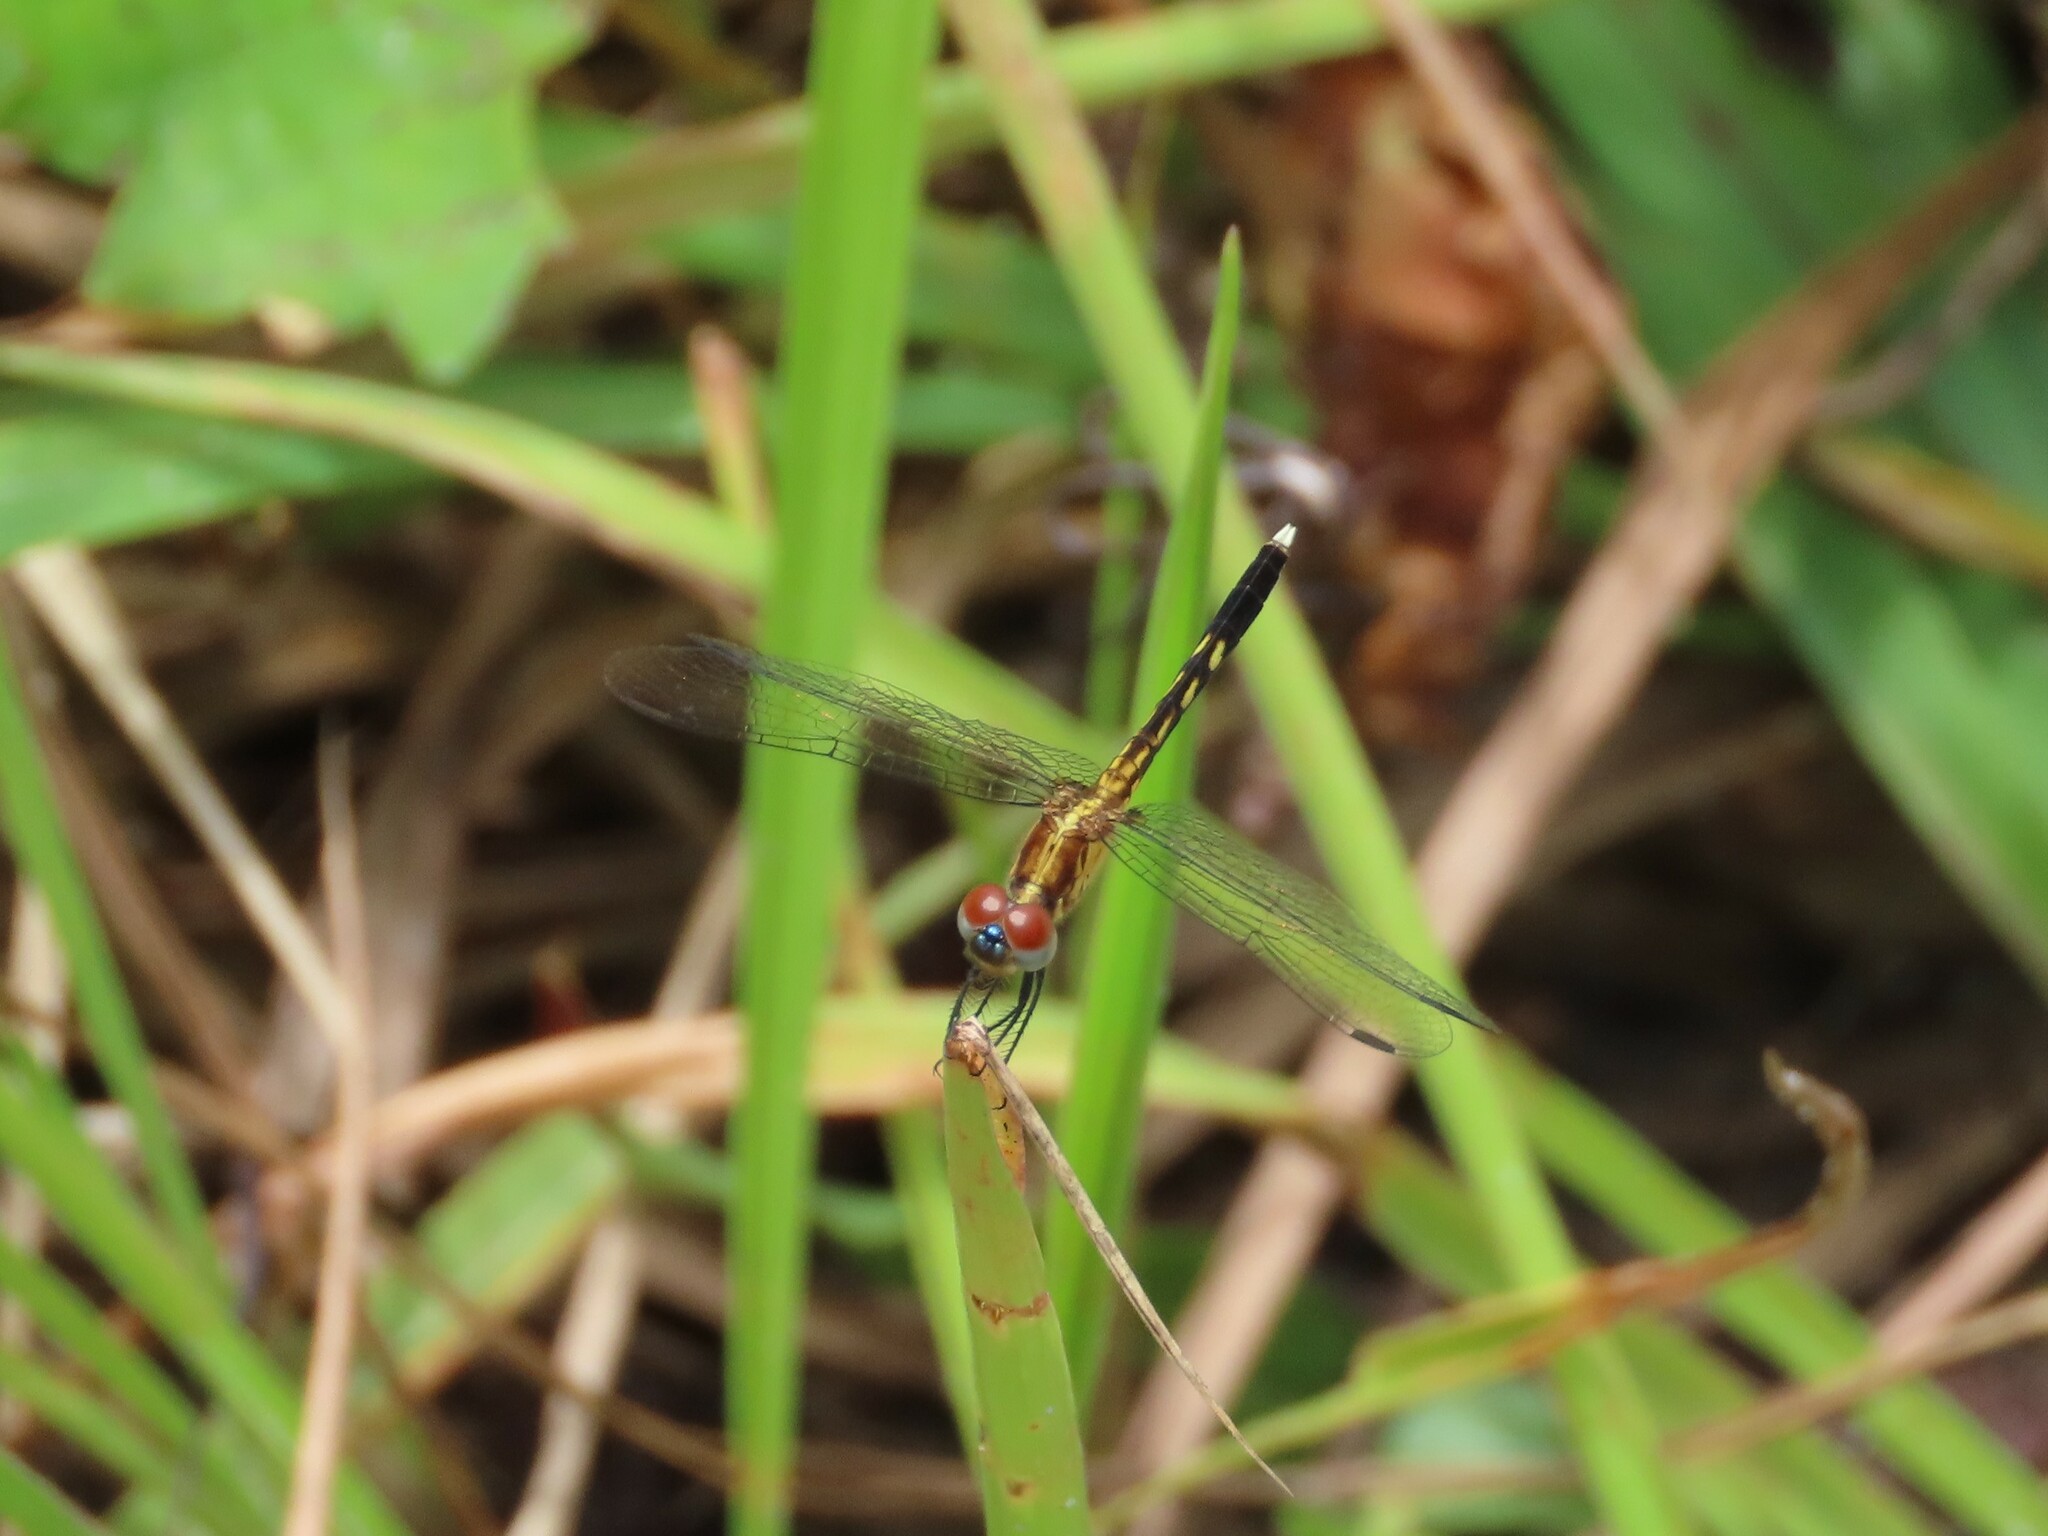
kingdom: Animalia
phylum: Arthropoda
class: Insecta
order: Odonata
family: Libellulidae
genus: Erythrodiplax
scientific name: Erythrodiplax minuscula
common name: Little blue dragonlet
